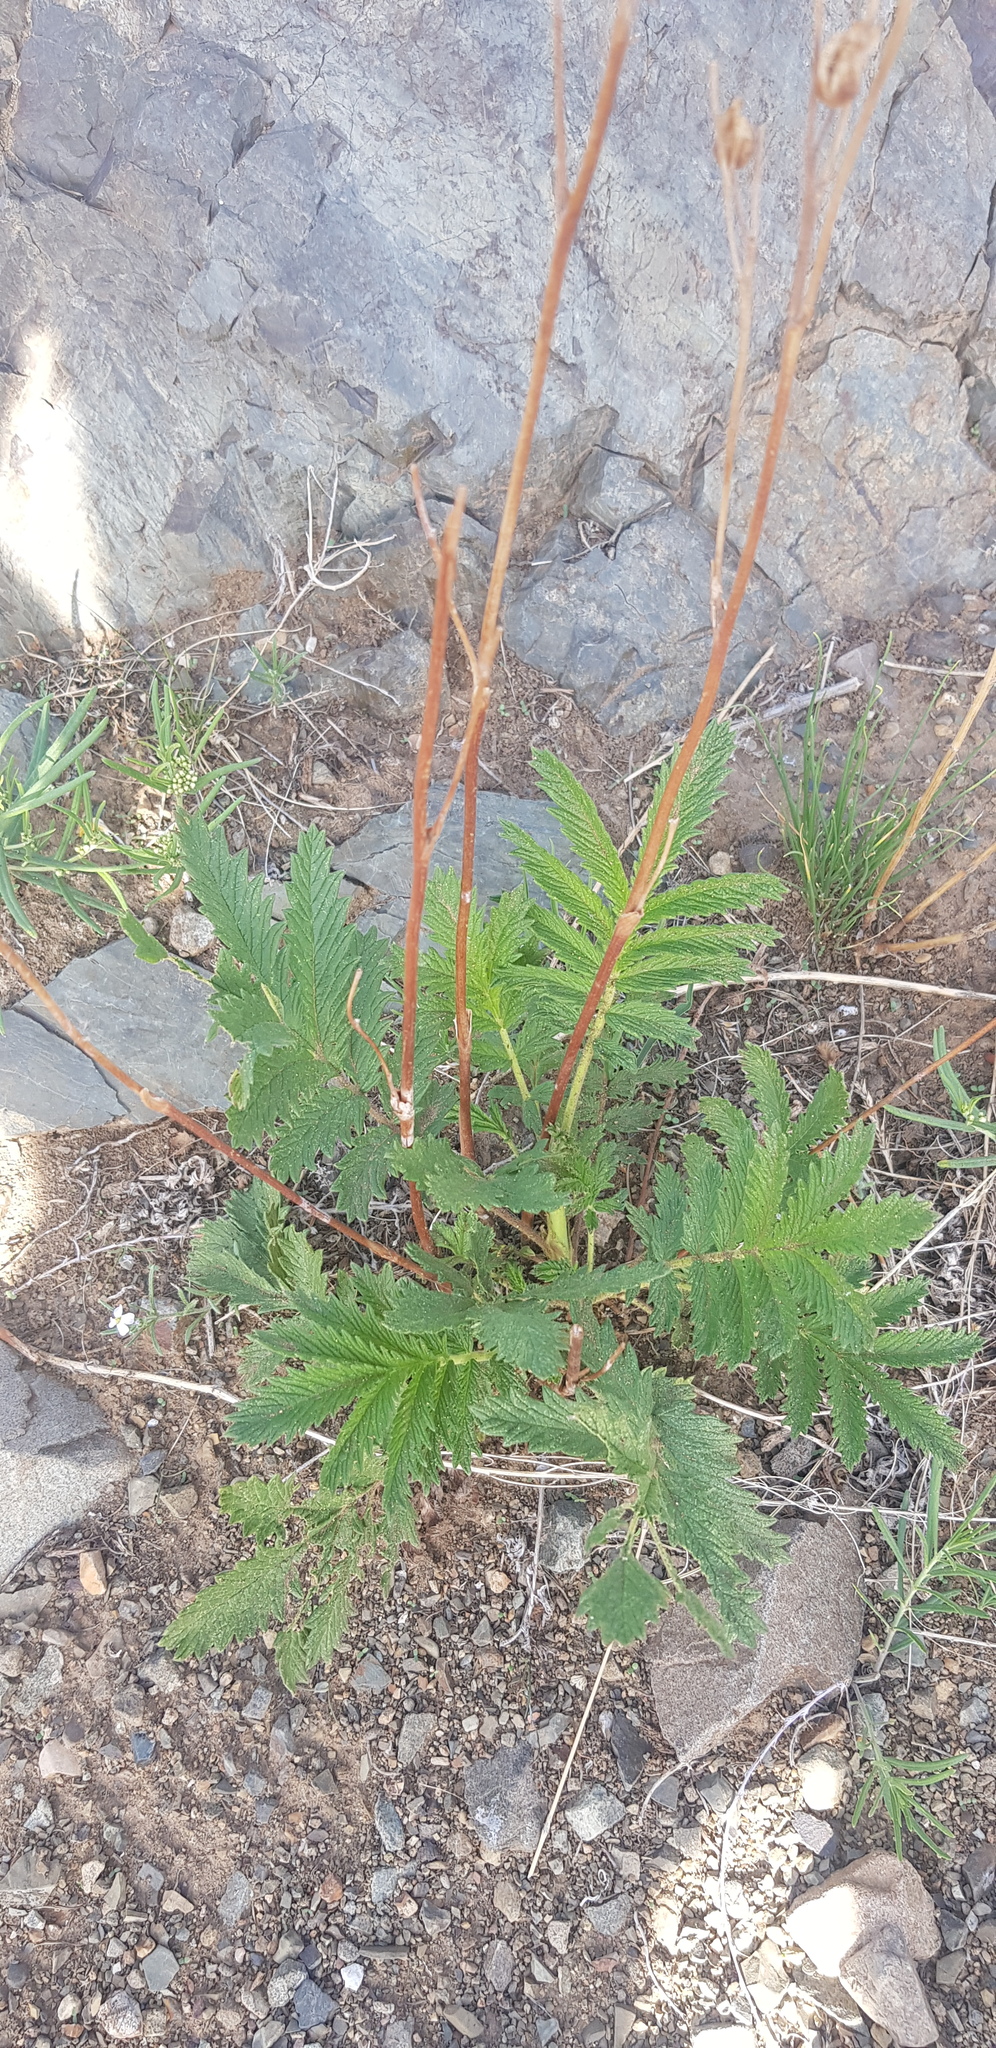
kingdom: Plantae
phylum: Tracheophyta
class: Magnoliopsida
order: Rosales
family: Rosaceae
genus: Potentilla
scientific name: Potentilla tanacetifolia
